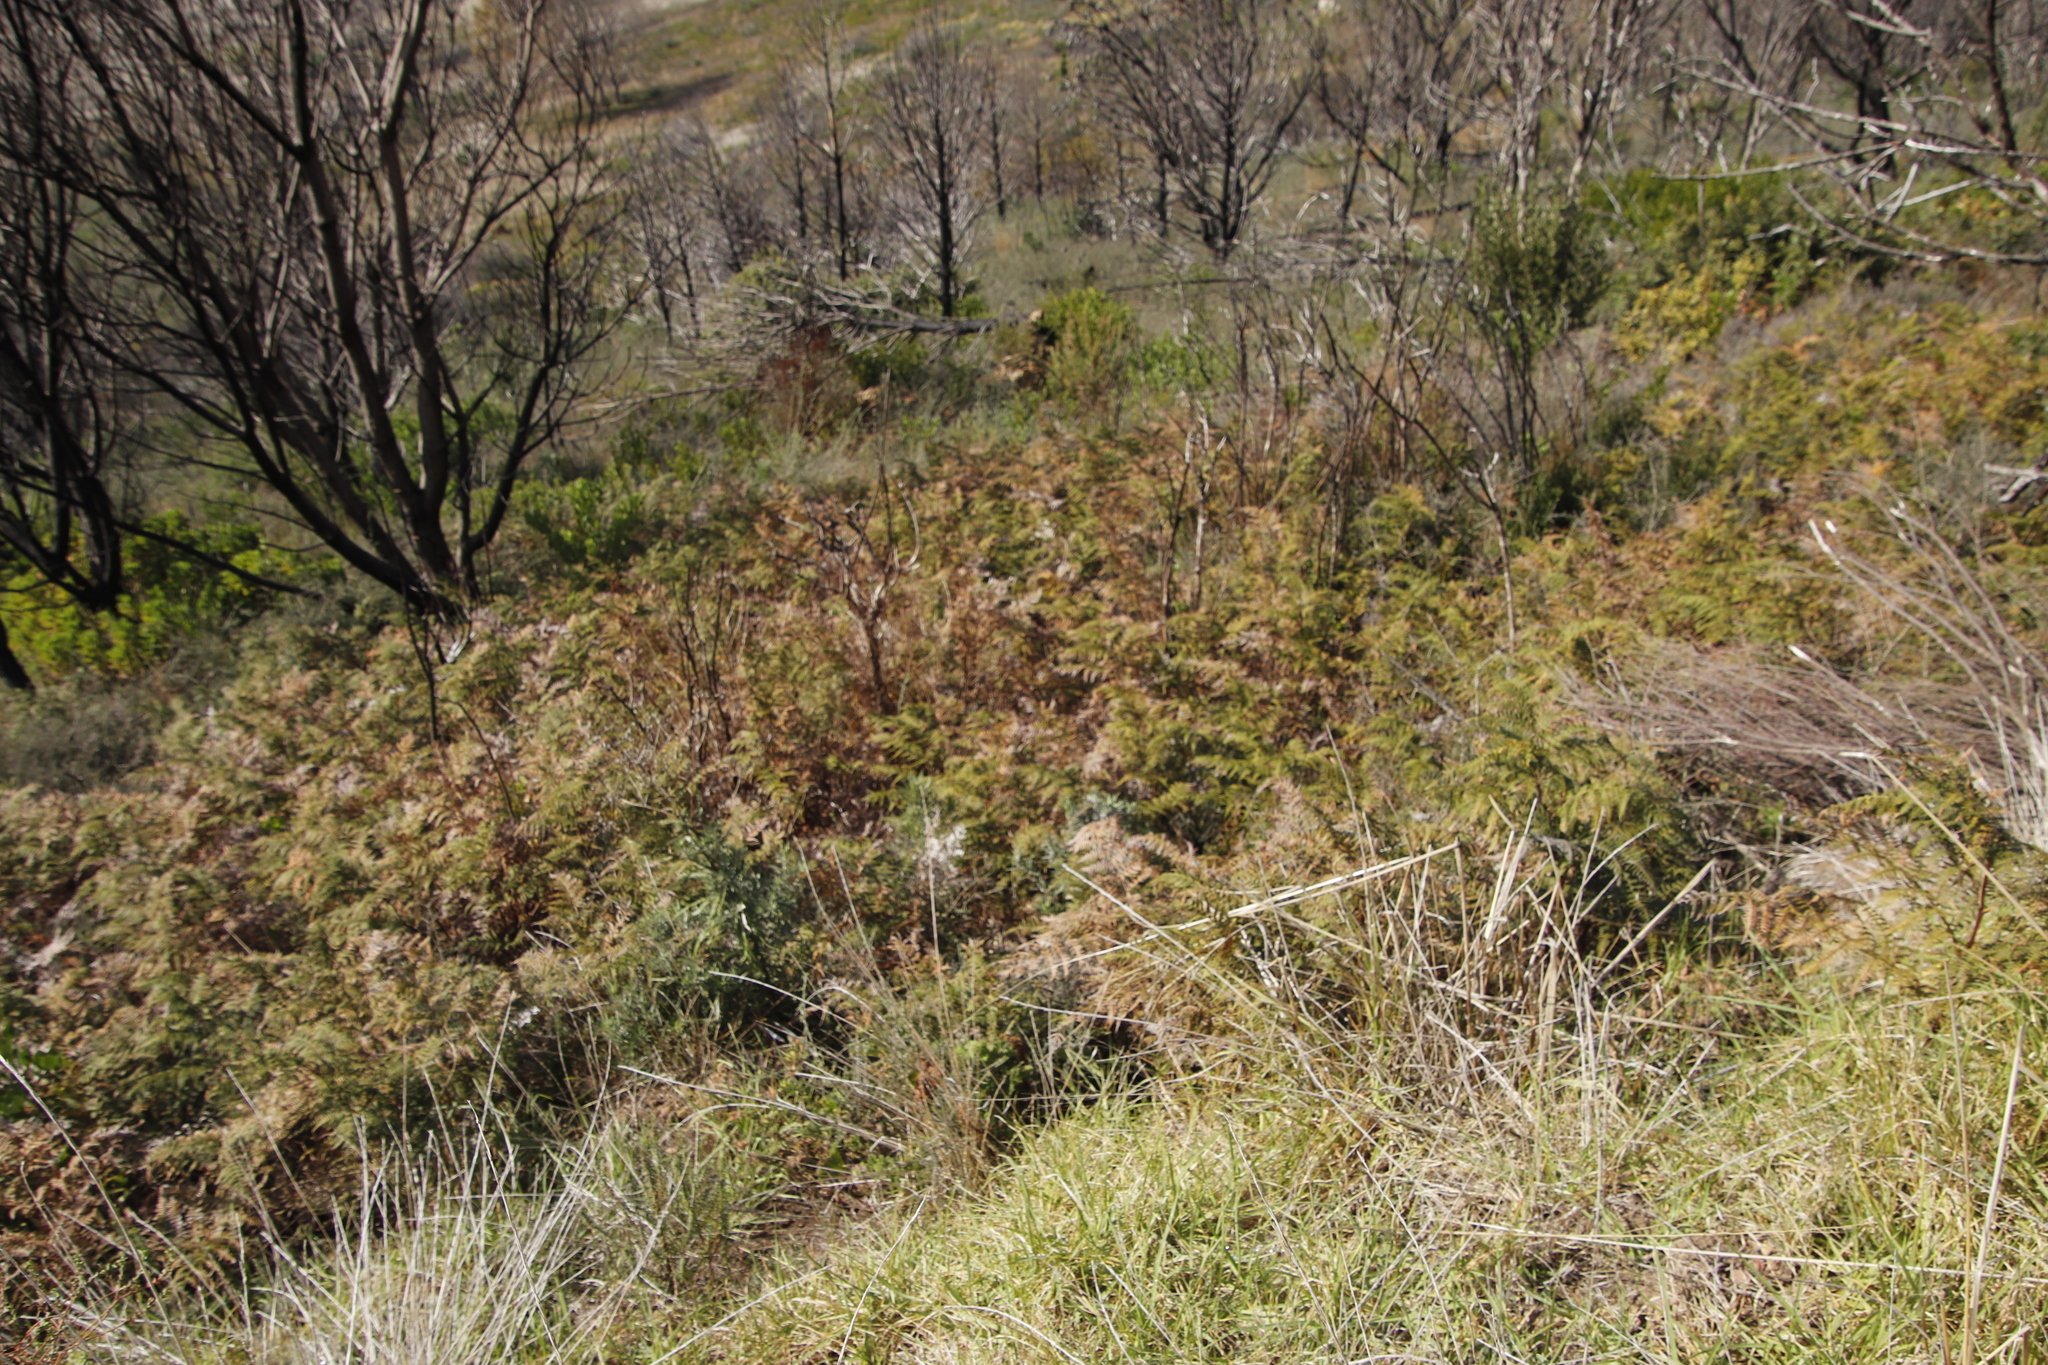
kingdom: Plantae
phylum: Tracheophyta
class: Polypodiopsida
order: Polypodiales
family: Dennstaedtiaceae
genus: Pteridium
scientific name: Pteridium aquilinum
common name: Bracken
